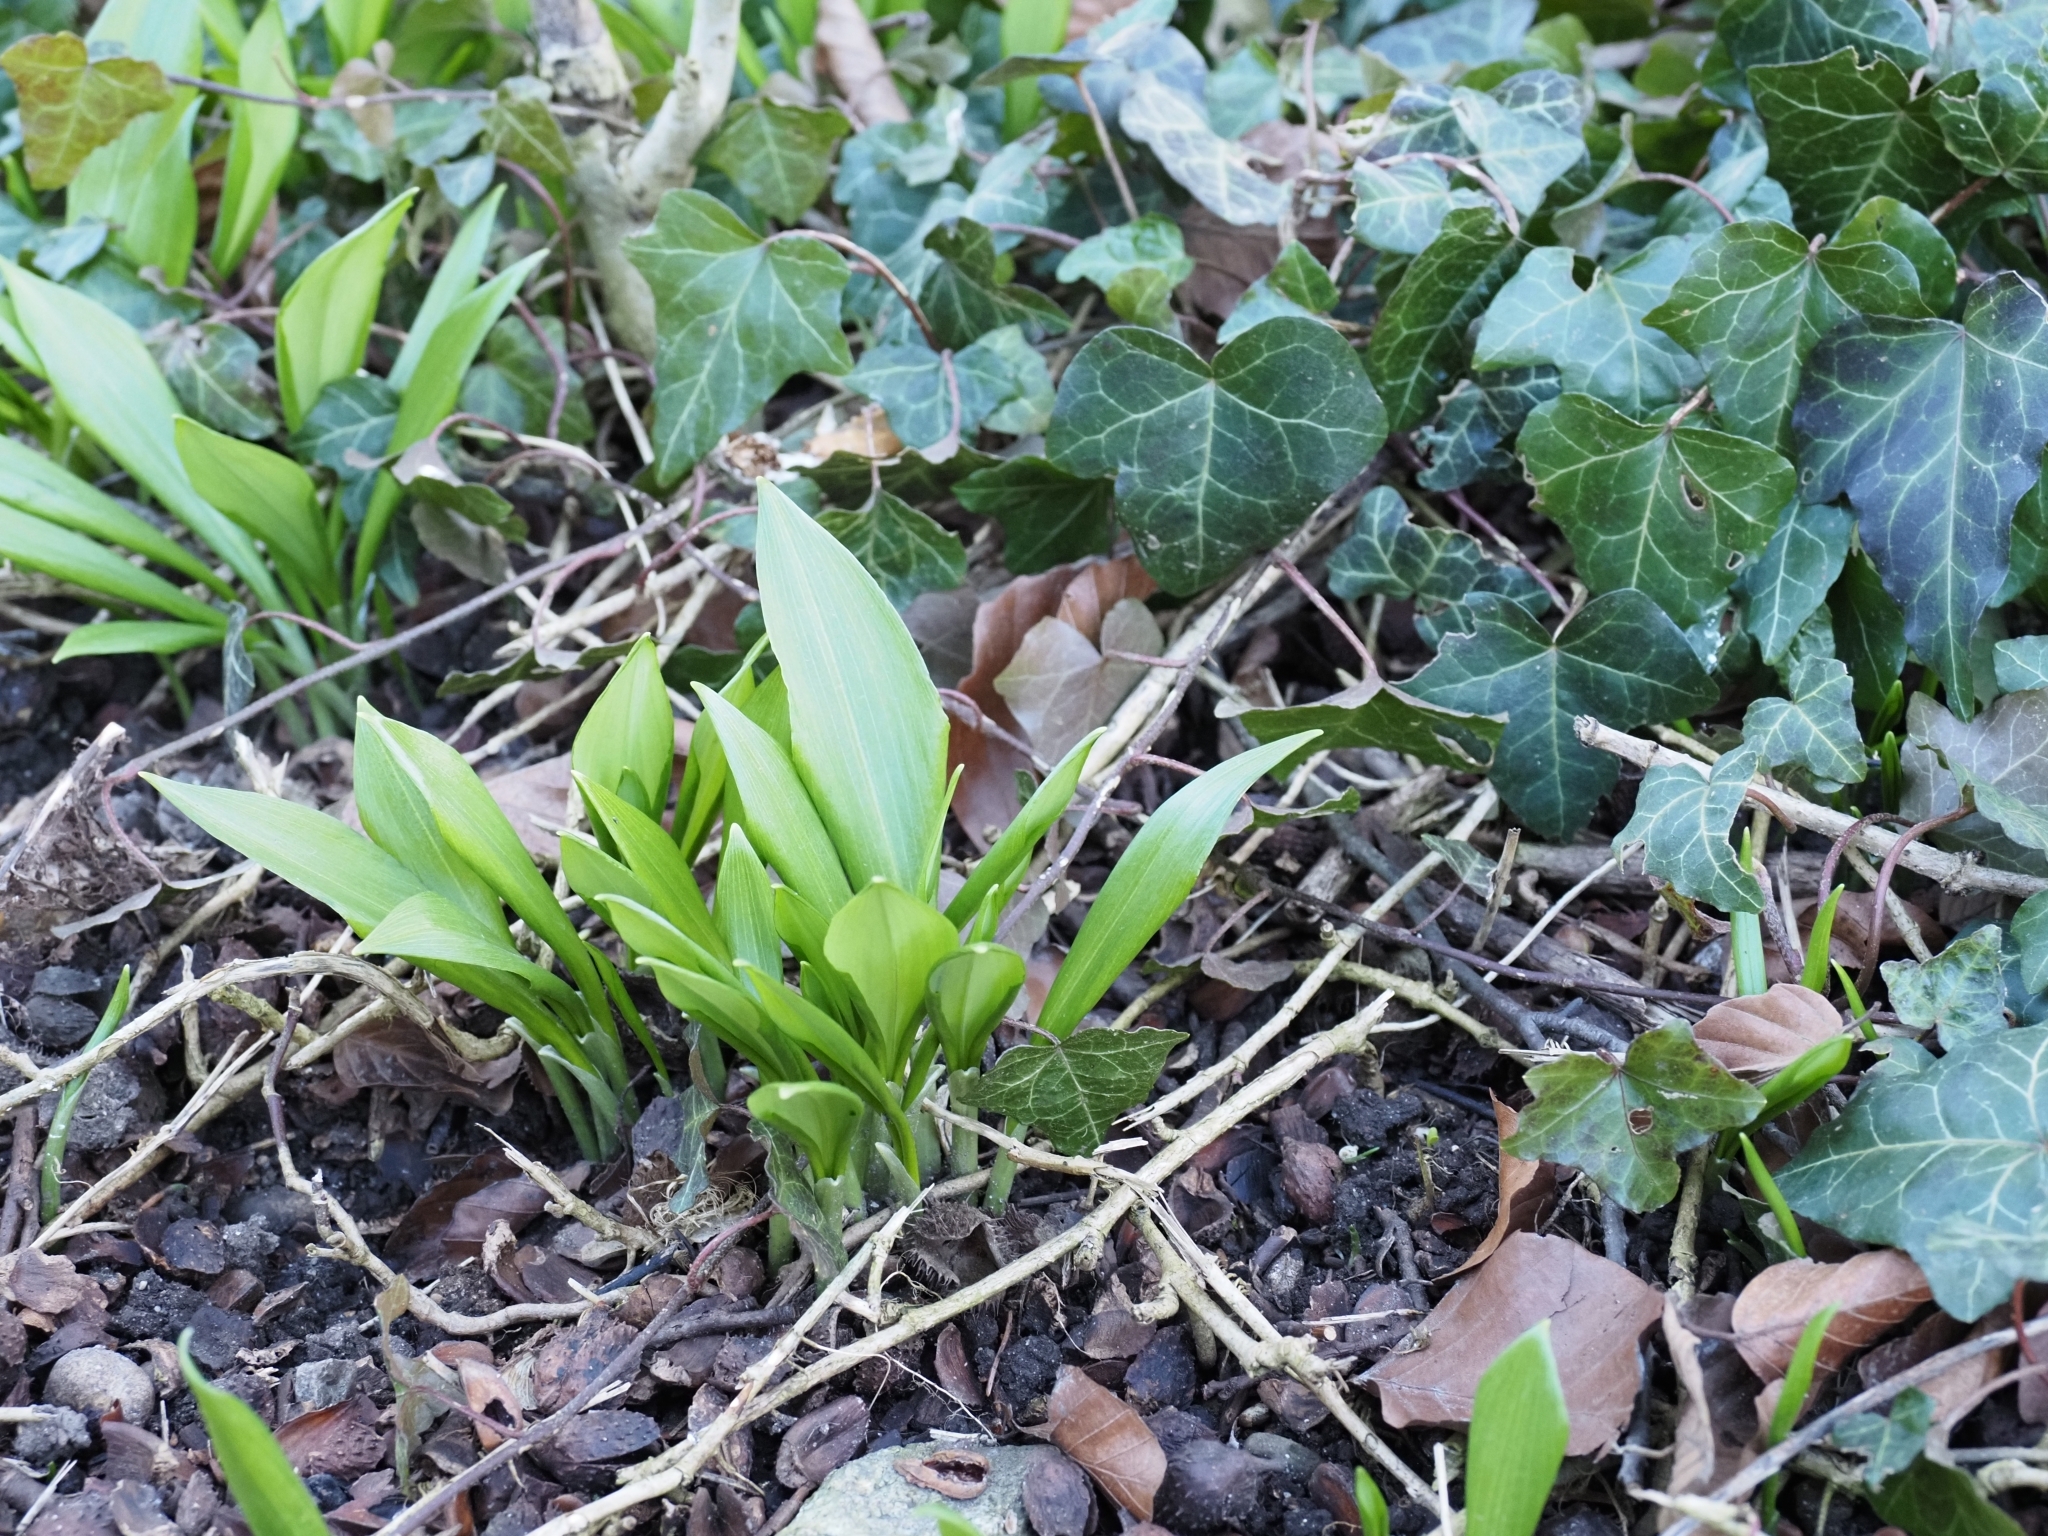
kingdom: Plantae
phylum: Tracheophyta
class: Liliopsida
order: Asparagales
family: Amaryllidaceae
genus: Allium
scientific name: Allium ursinum
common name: Ramsons
